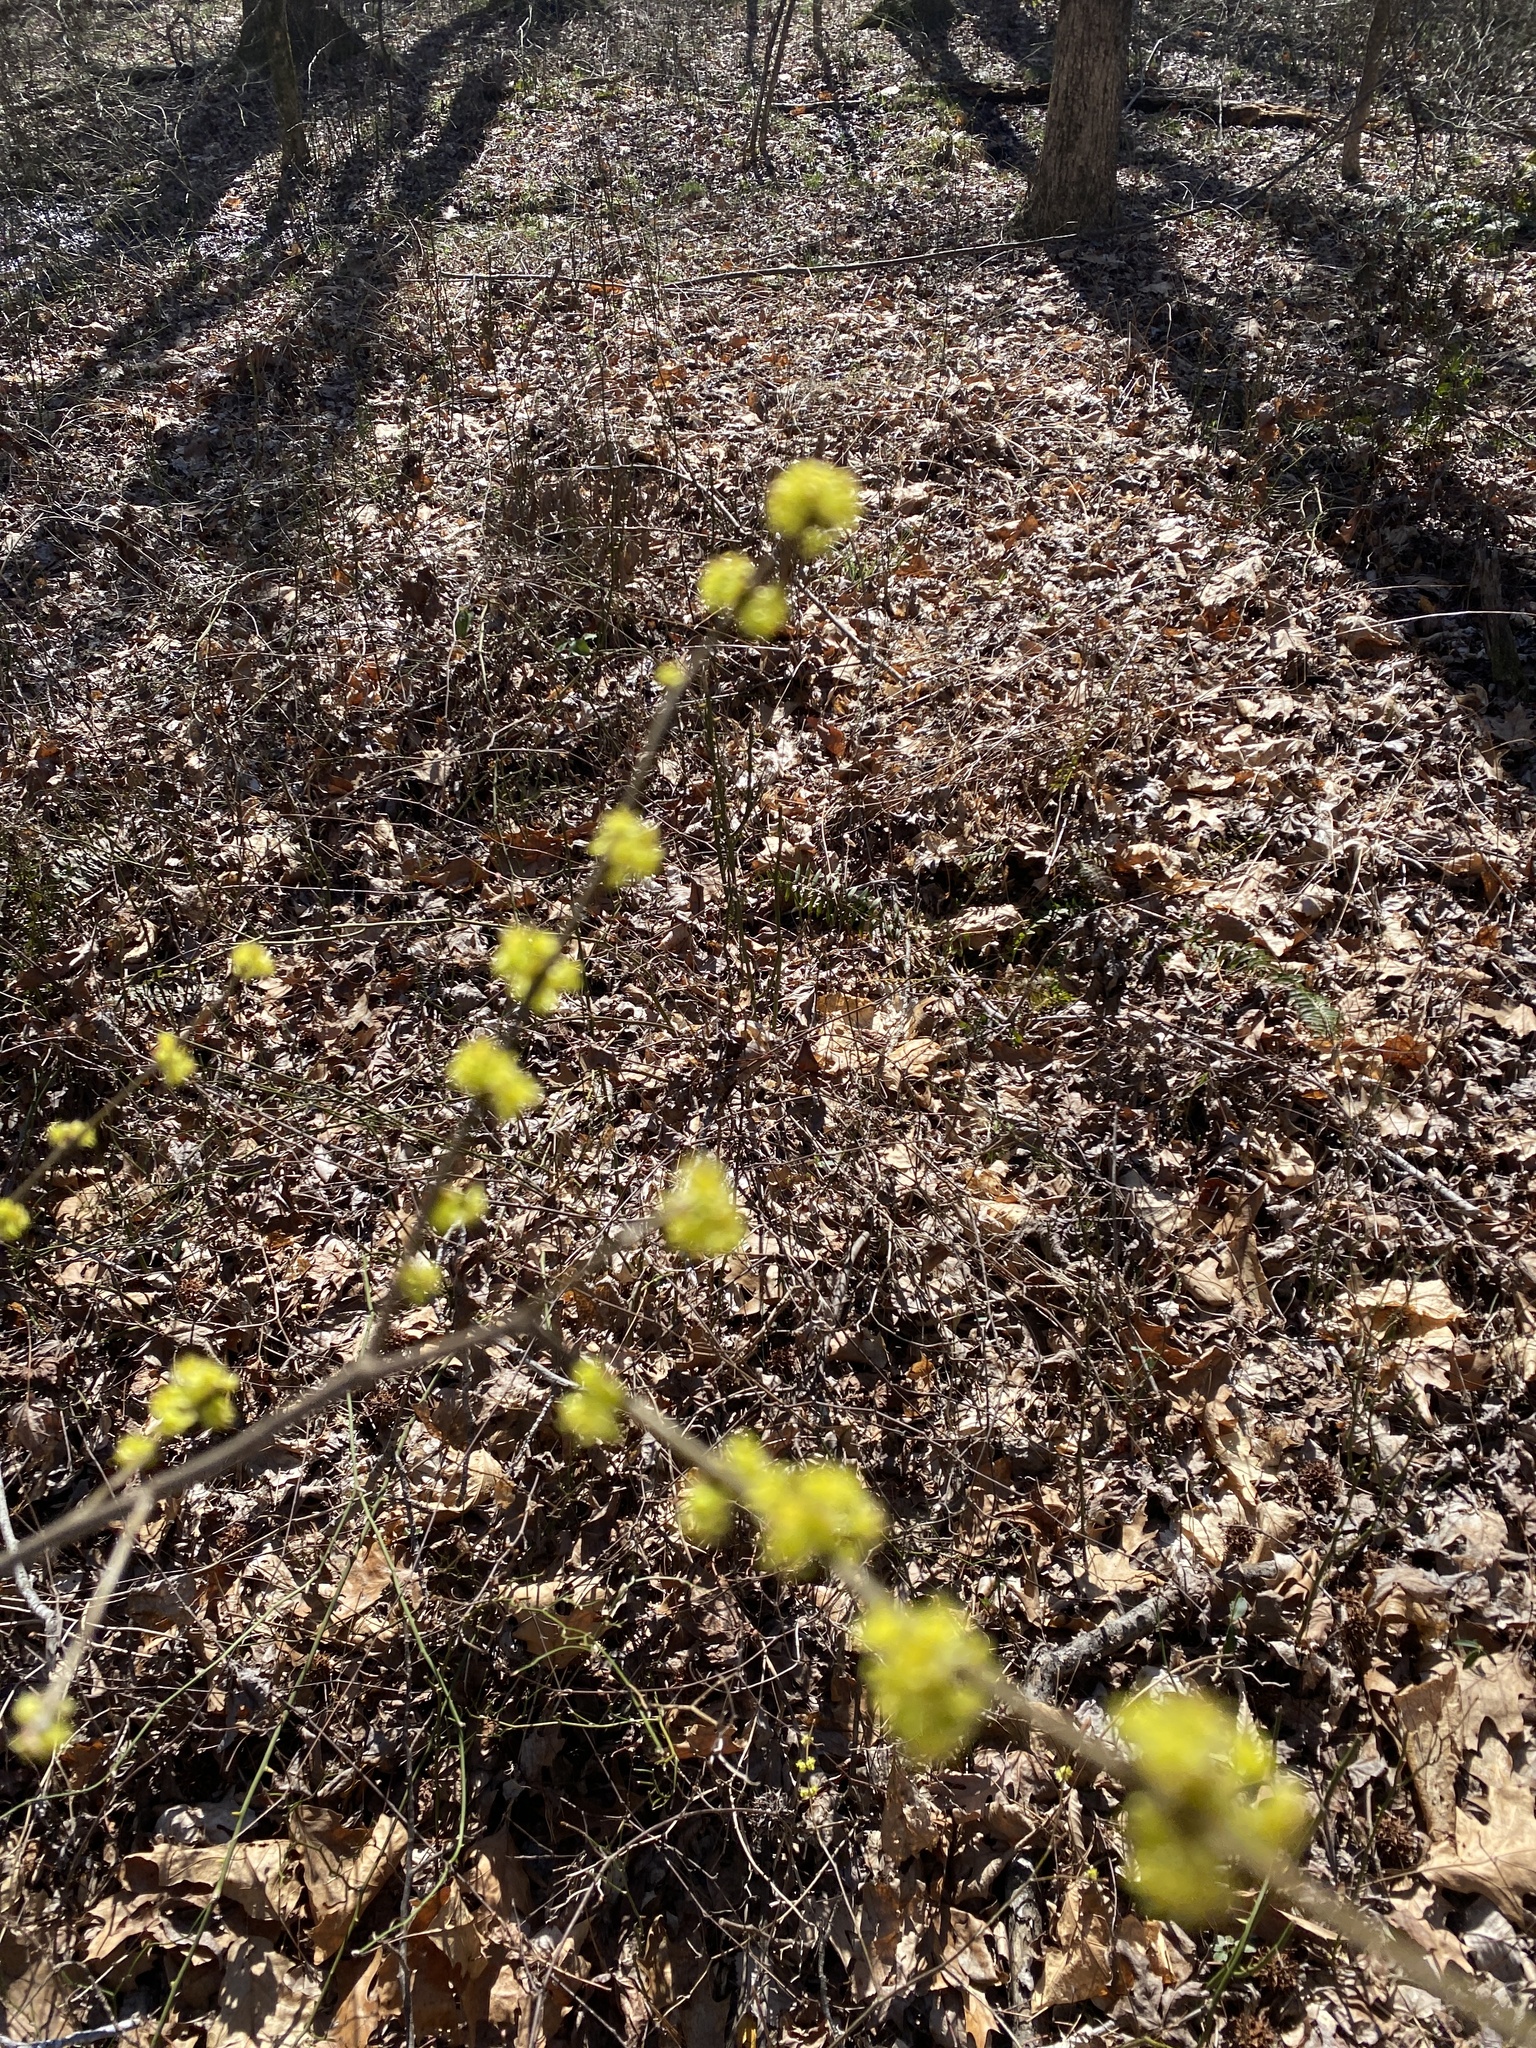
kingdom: Plantae
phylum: Tracheophyta
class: Magnoliopsida
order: Laurales
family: Lauraceae
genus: Lindera
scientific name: Lindera benzoin
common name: Spicebush
